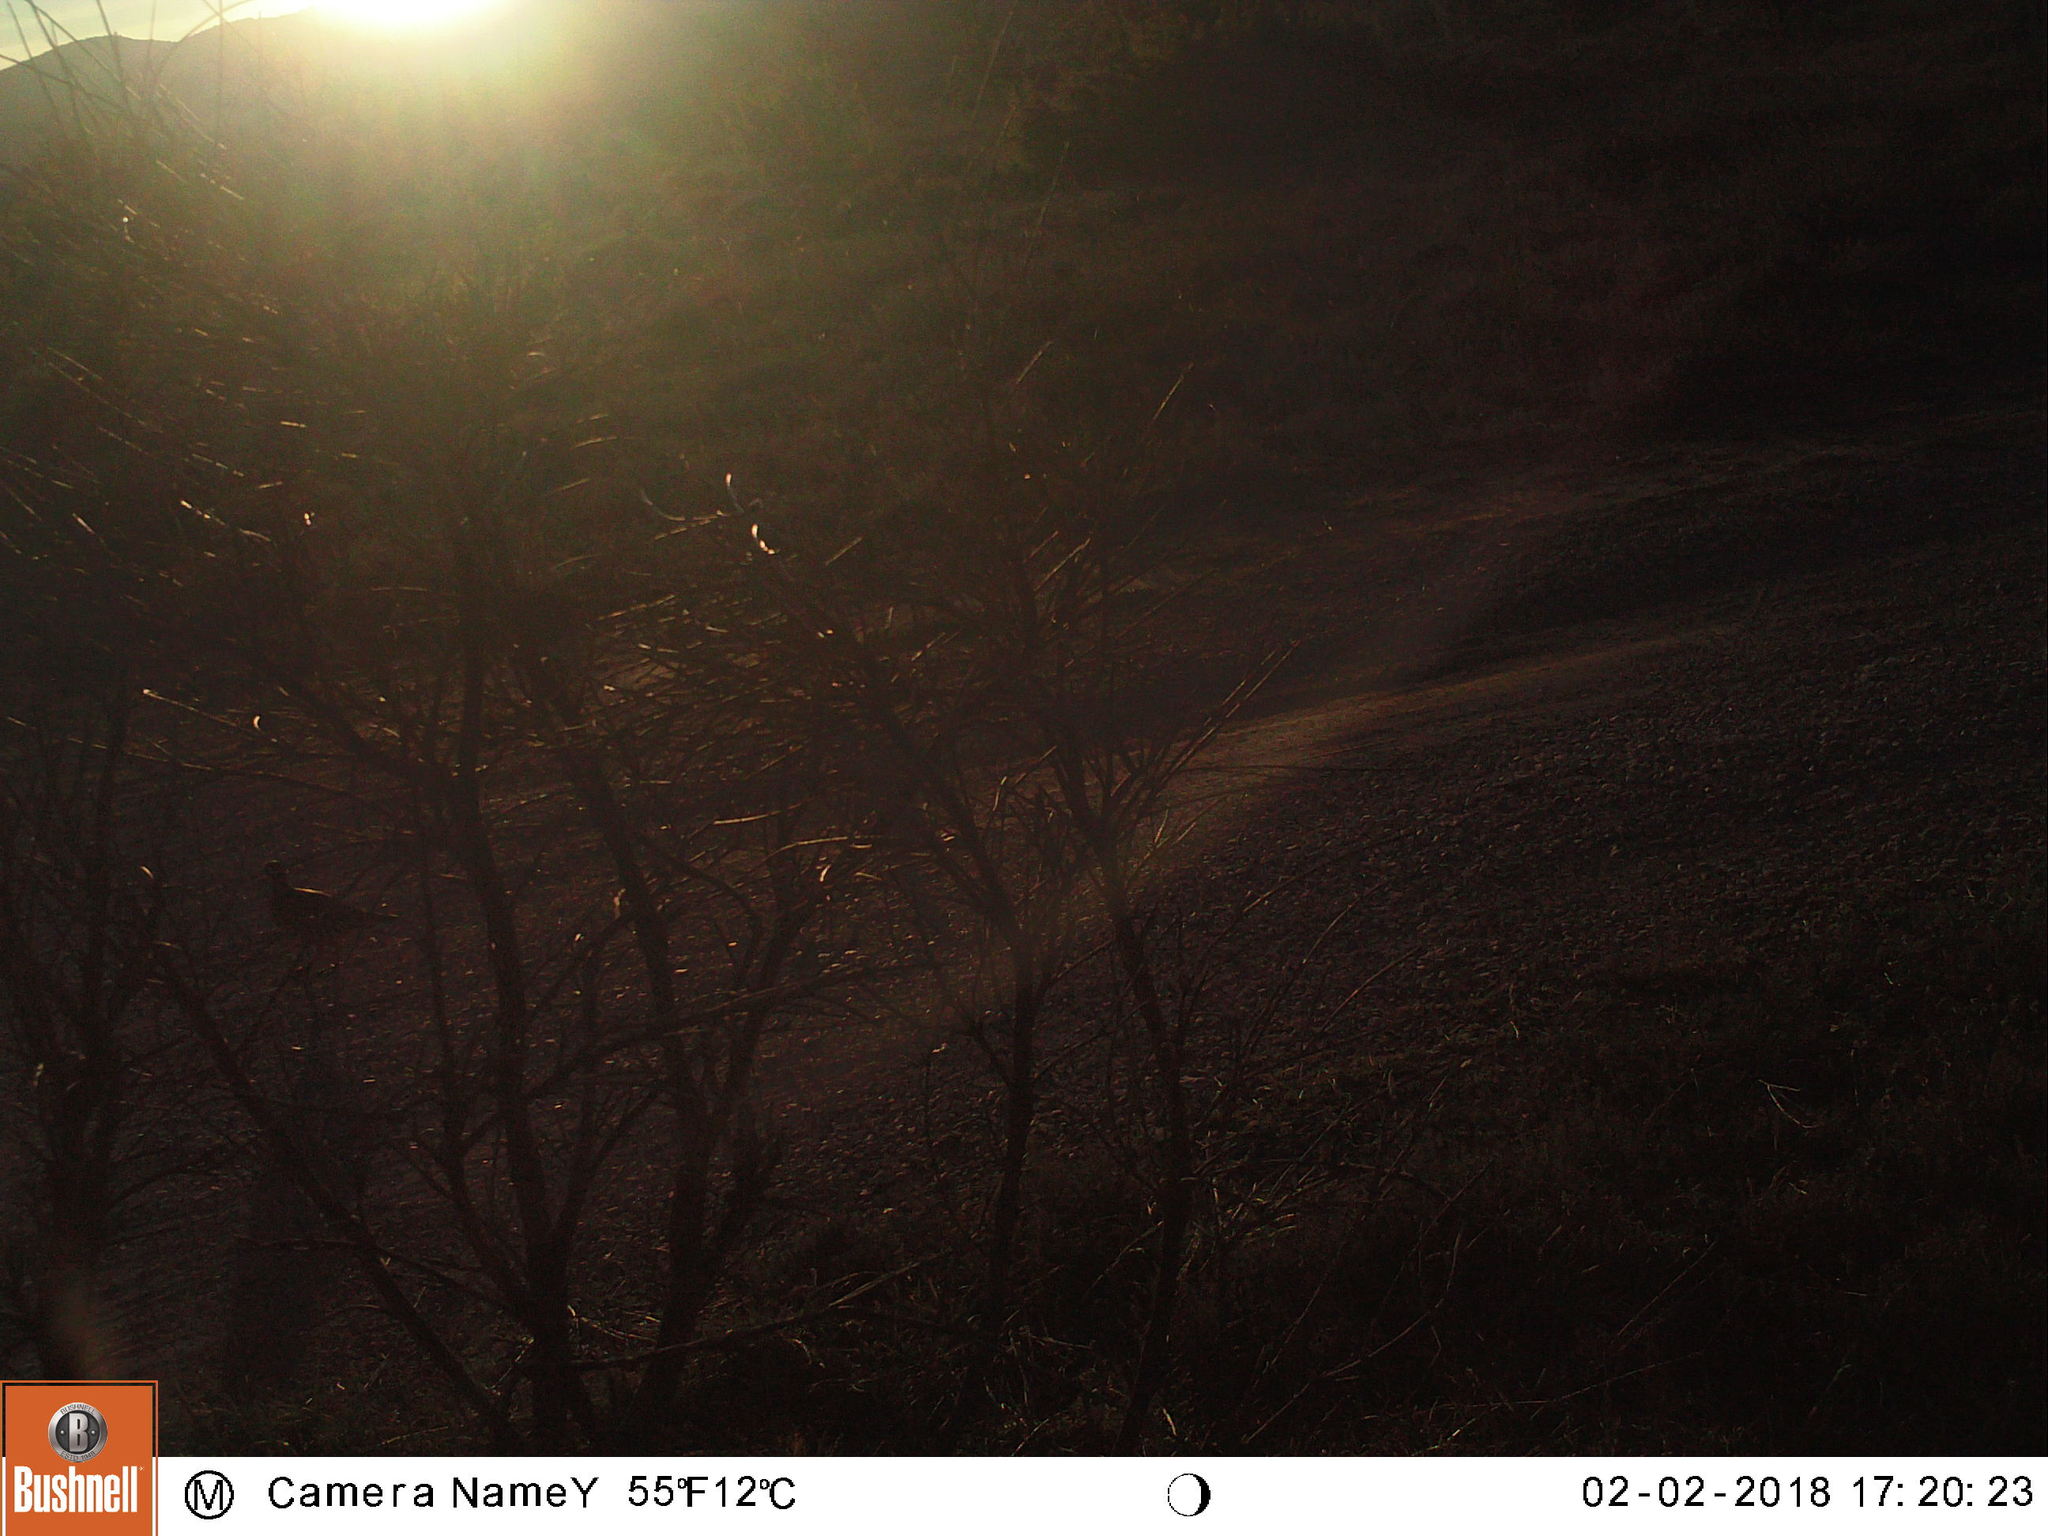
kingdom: Animalia
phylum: Chordata
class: Aves
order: Galliformes
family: Phasianidae
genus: Alectoris
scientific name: Alectoris rufa
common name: Red-legged partridge
